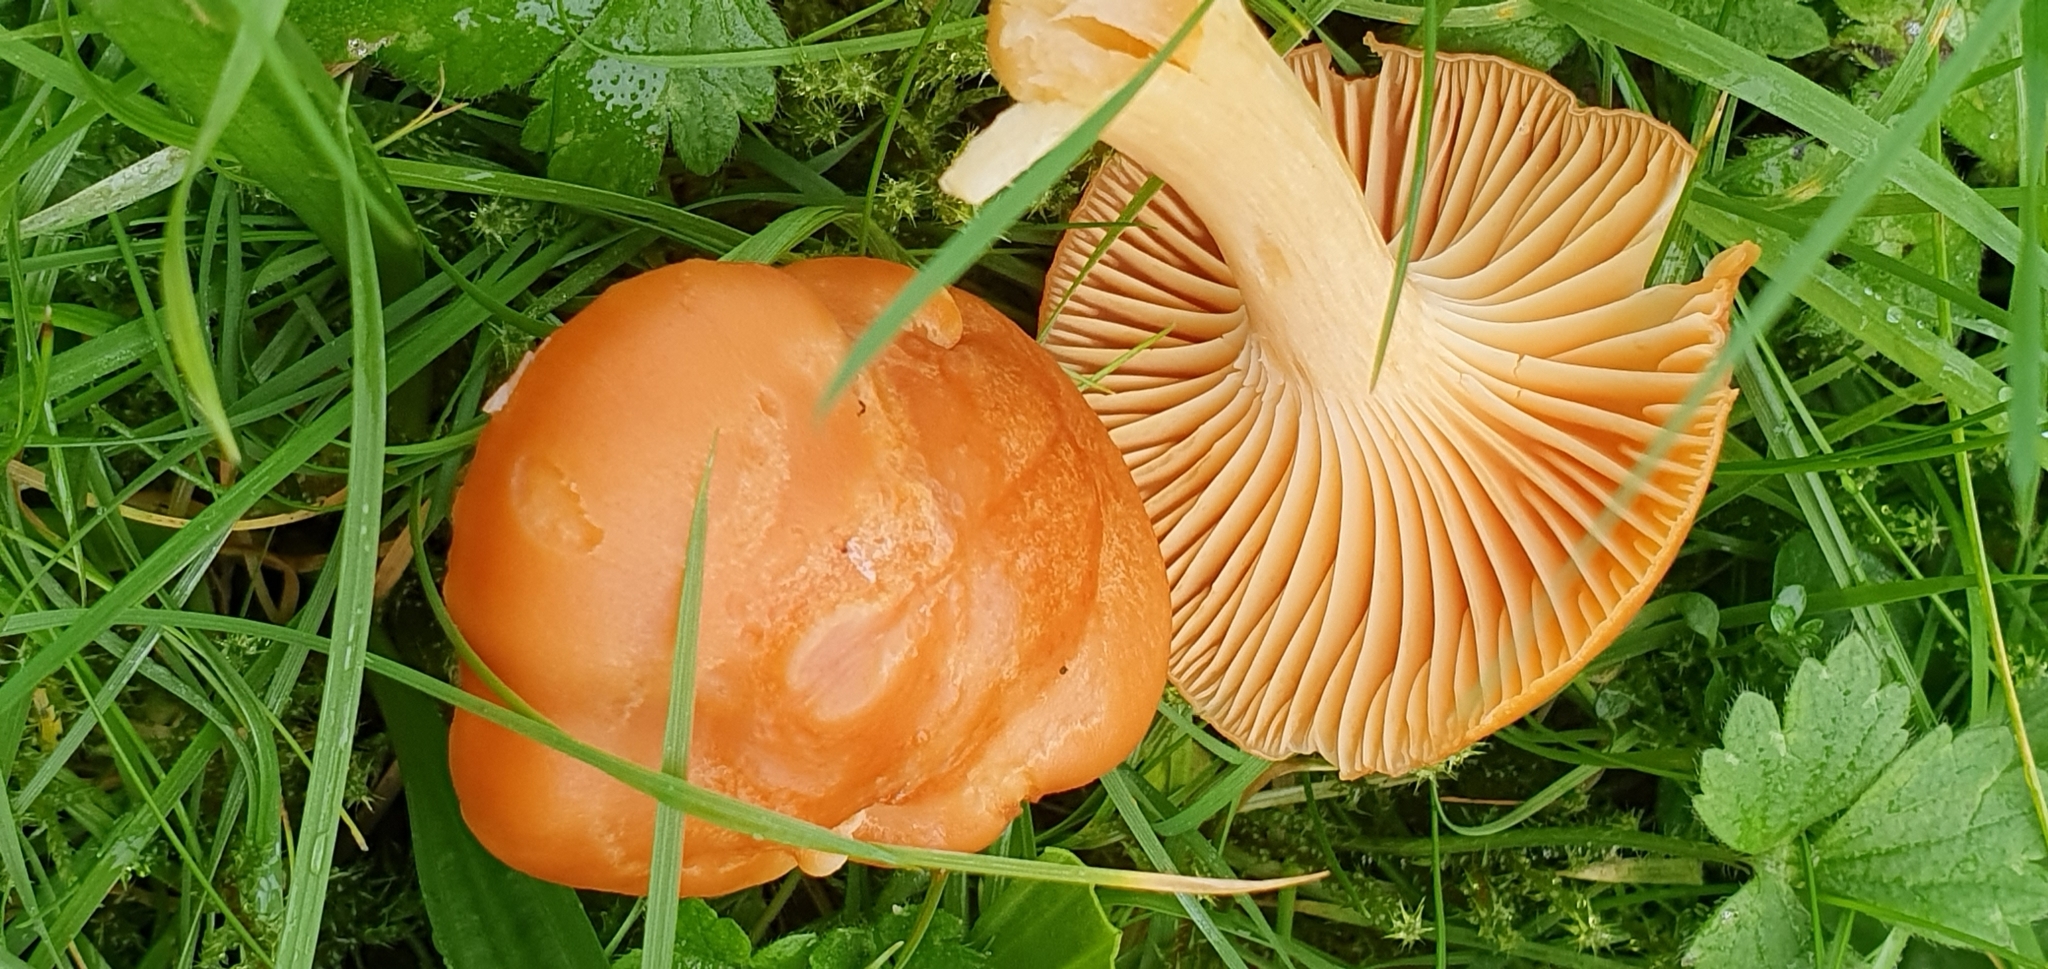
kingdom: Fungi
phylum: Basidiomycota
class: Agaricomycetes
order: Agaricales
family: Hygrophoraceae
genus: Cuphophyllus
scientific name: Cuphophyllus pratensis
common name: Meadow waxcap
